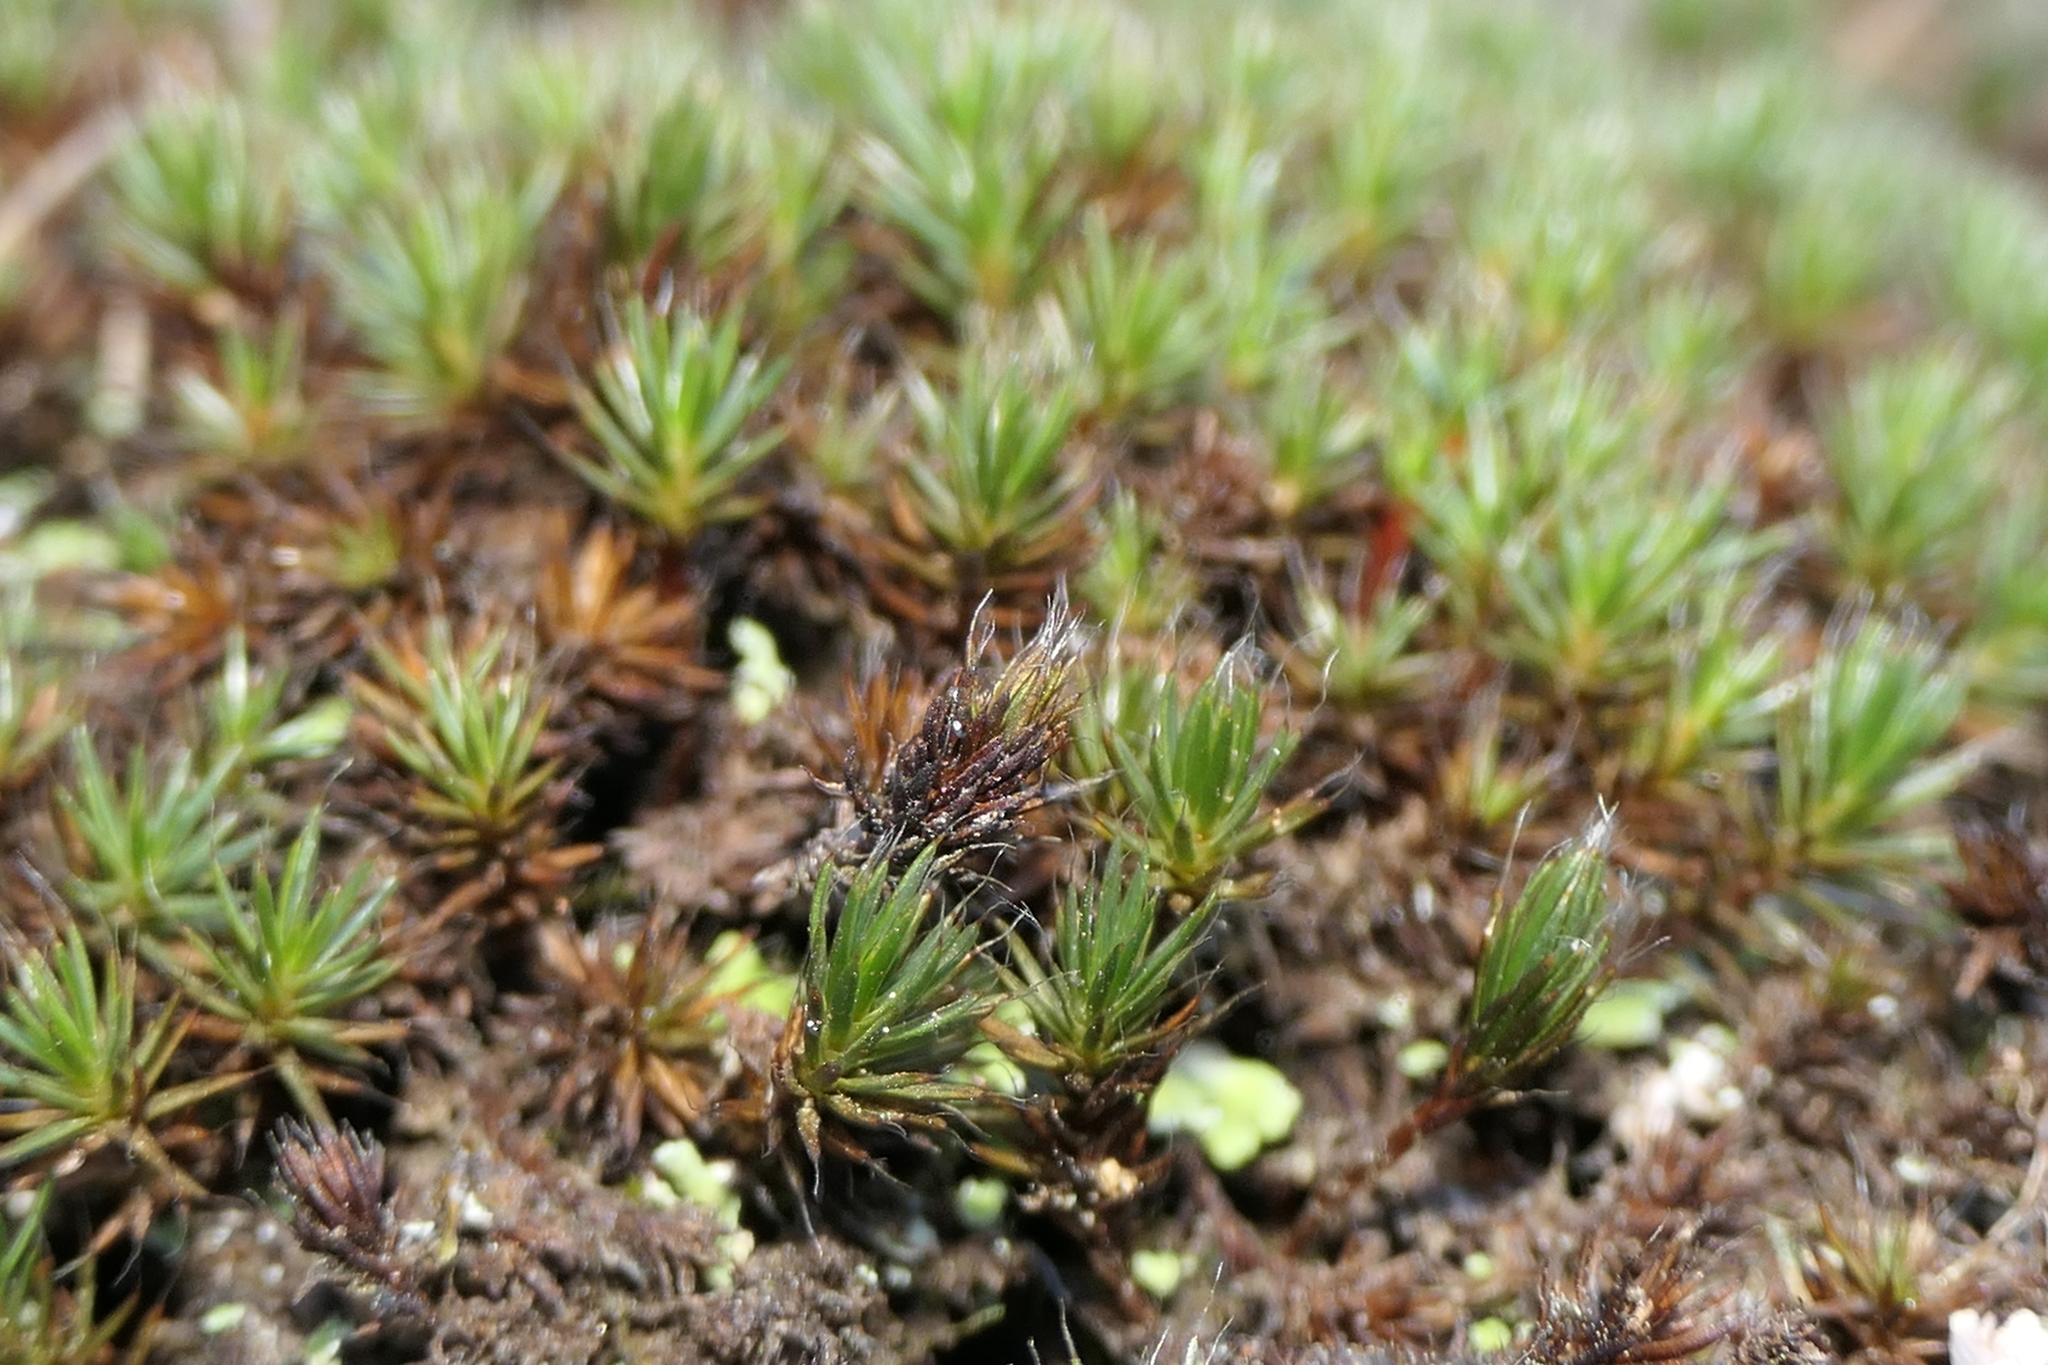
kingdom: Plantae
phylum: Bryophyta
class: Polytrichopsida
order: Polytrichales
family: Polytrichaceae
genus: Polytrichum
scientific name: Polytrichum piliferum
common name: Bristly haircap
